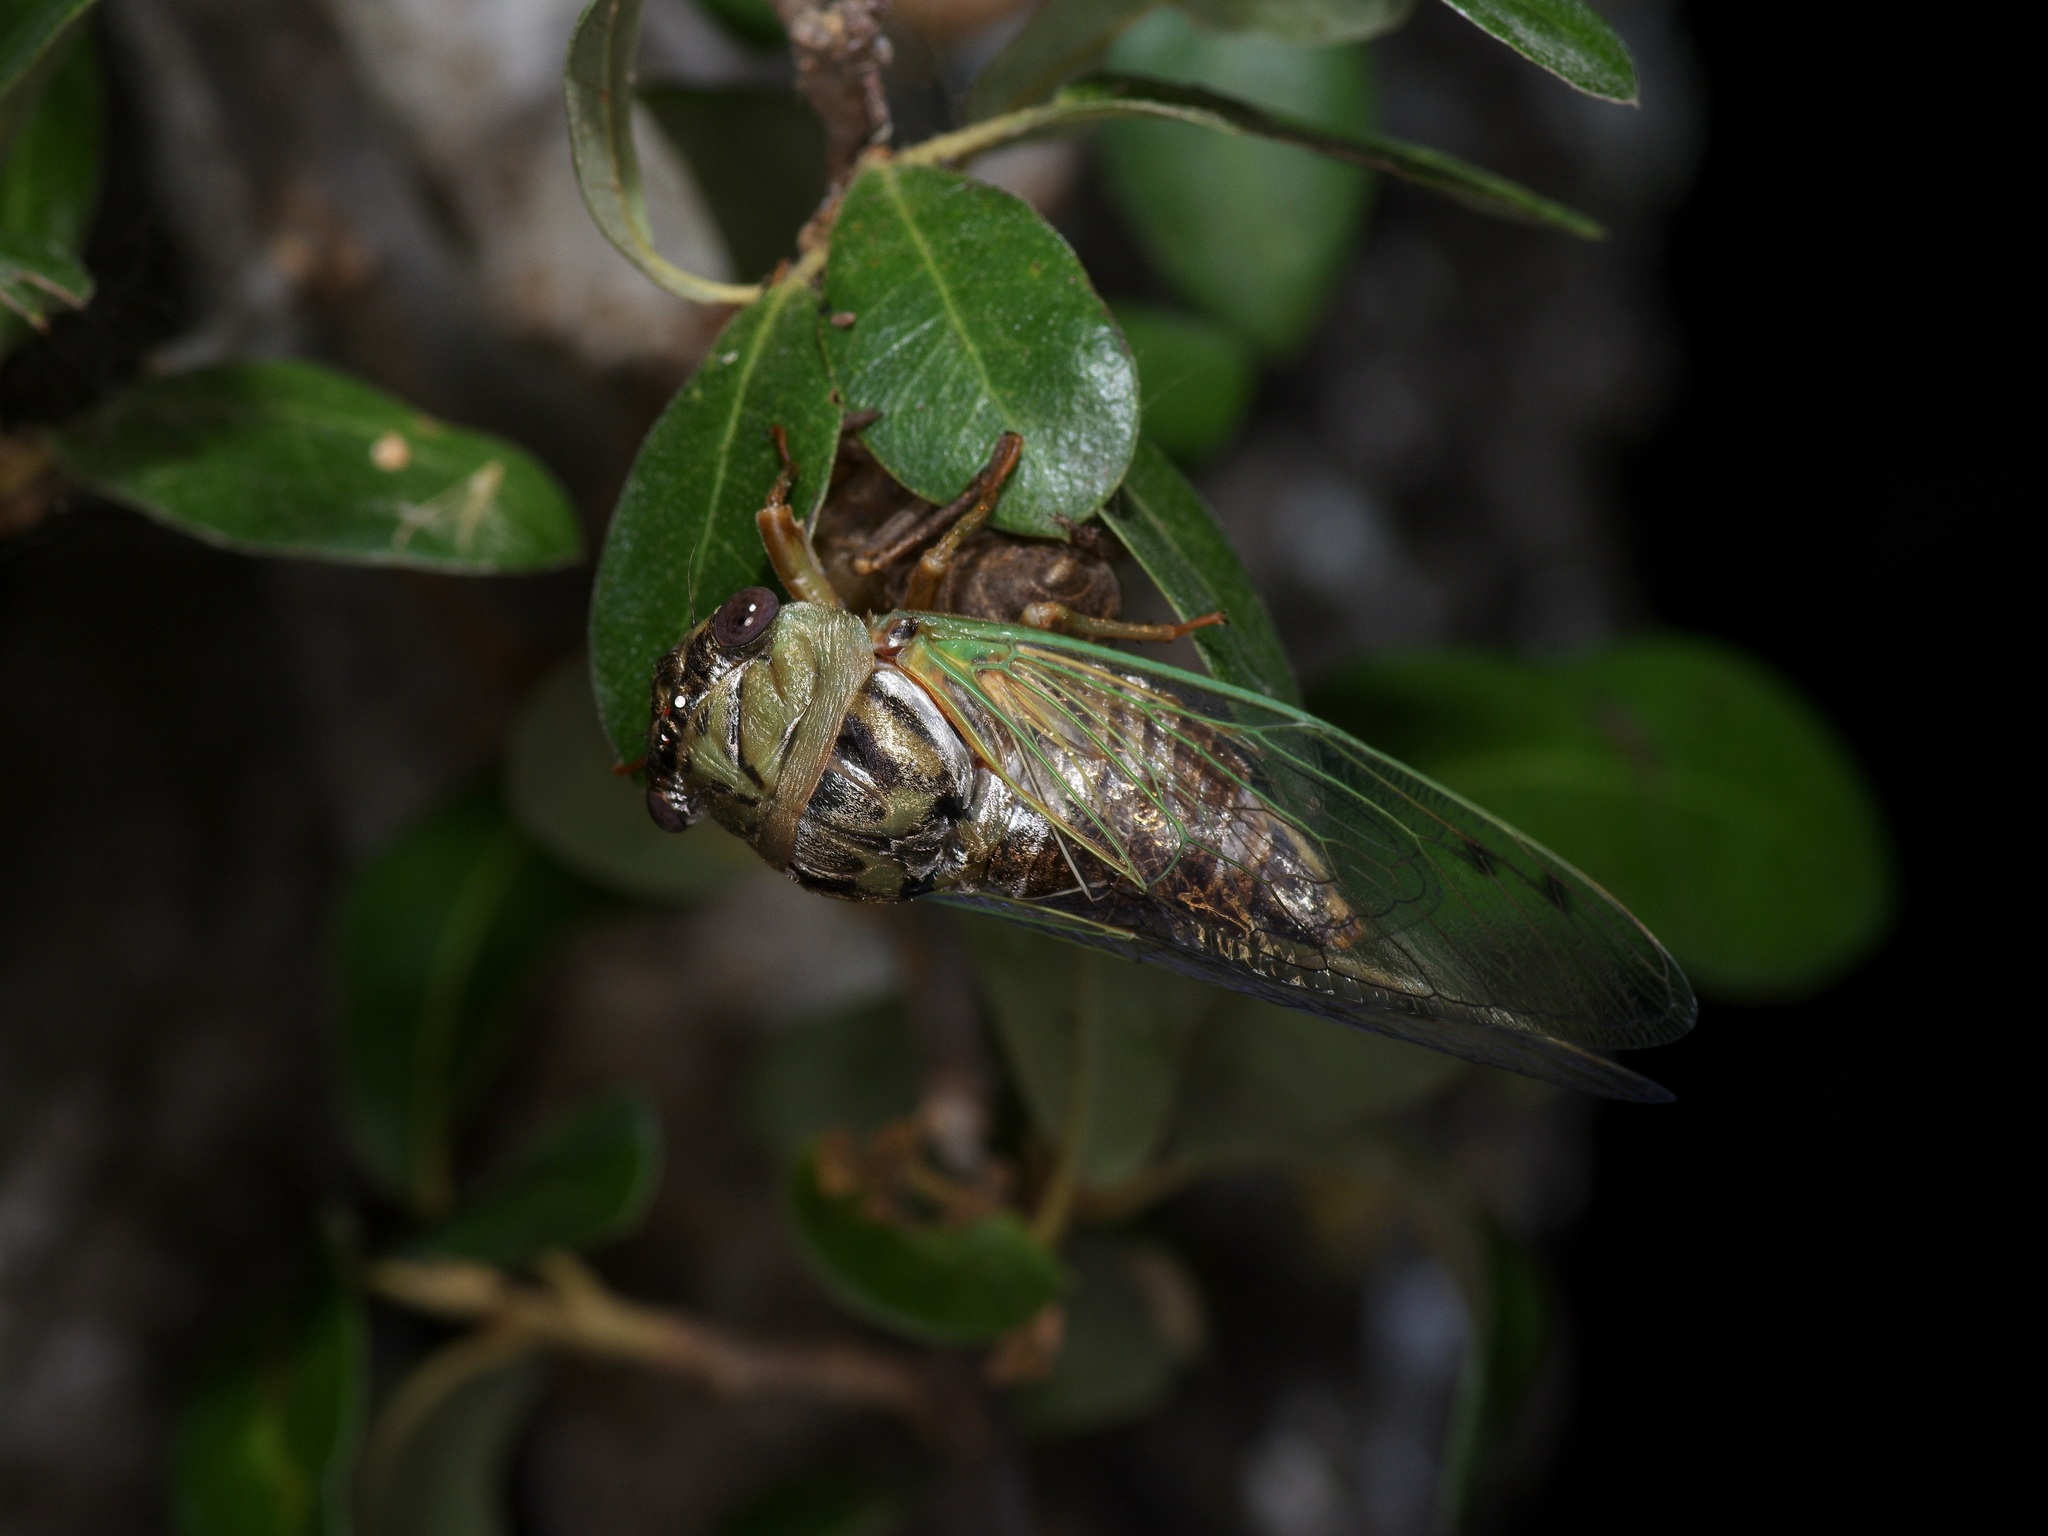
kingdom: Animalia
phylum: Arthropoda
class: Insecta
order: Hemiptera
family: Cicadidae
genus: Megatibicen
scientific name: Megatibicen resh
